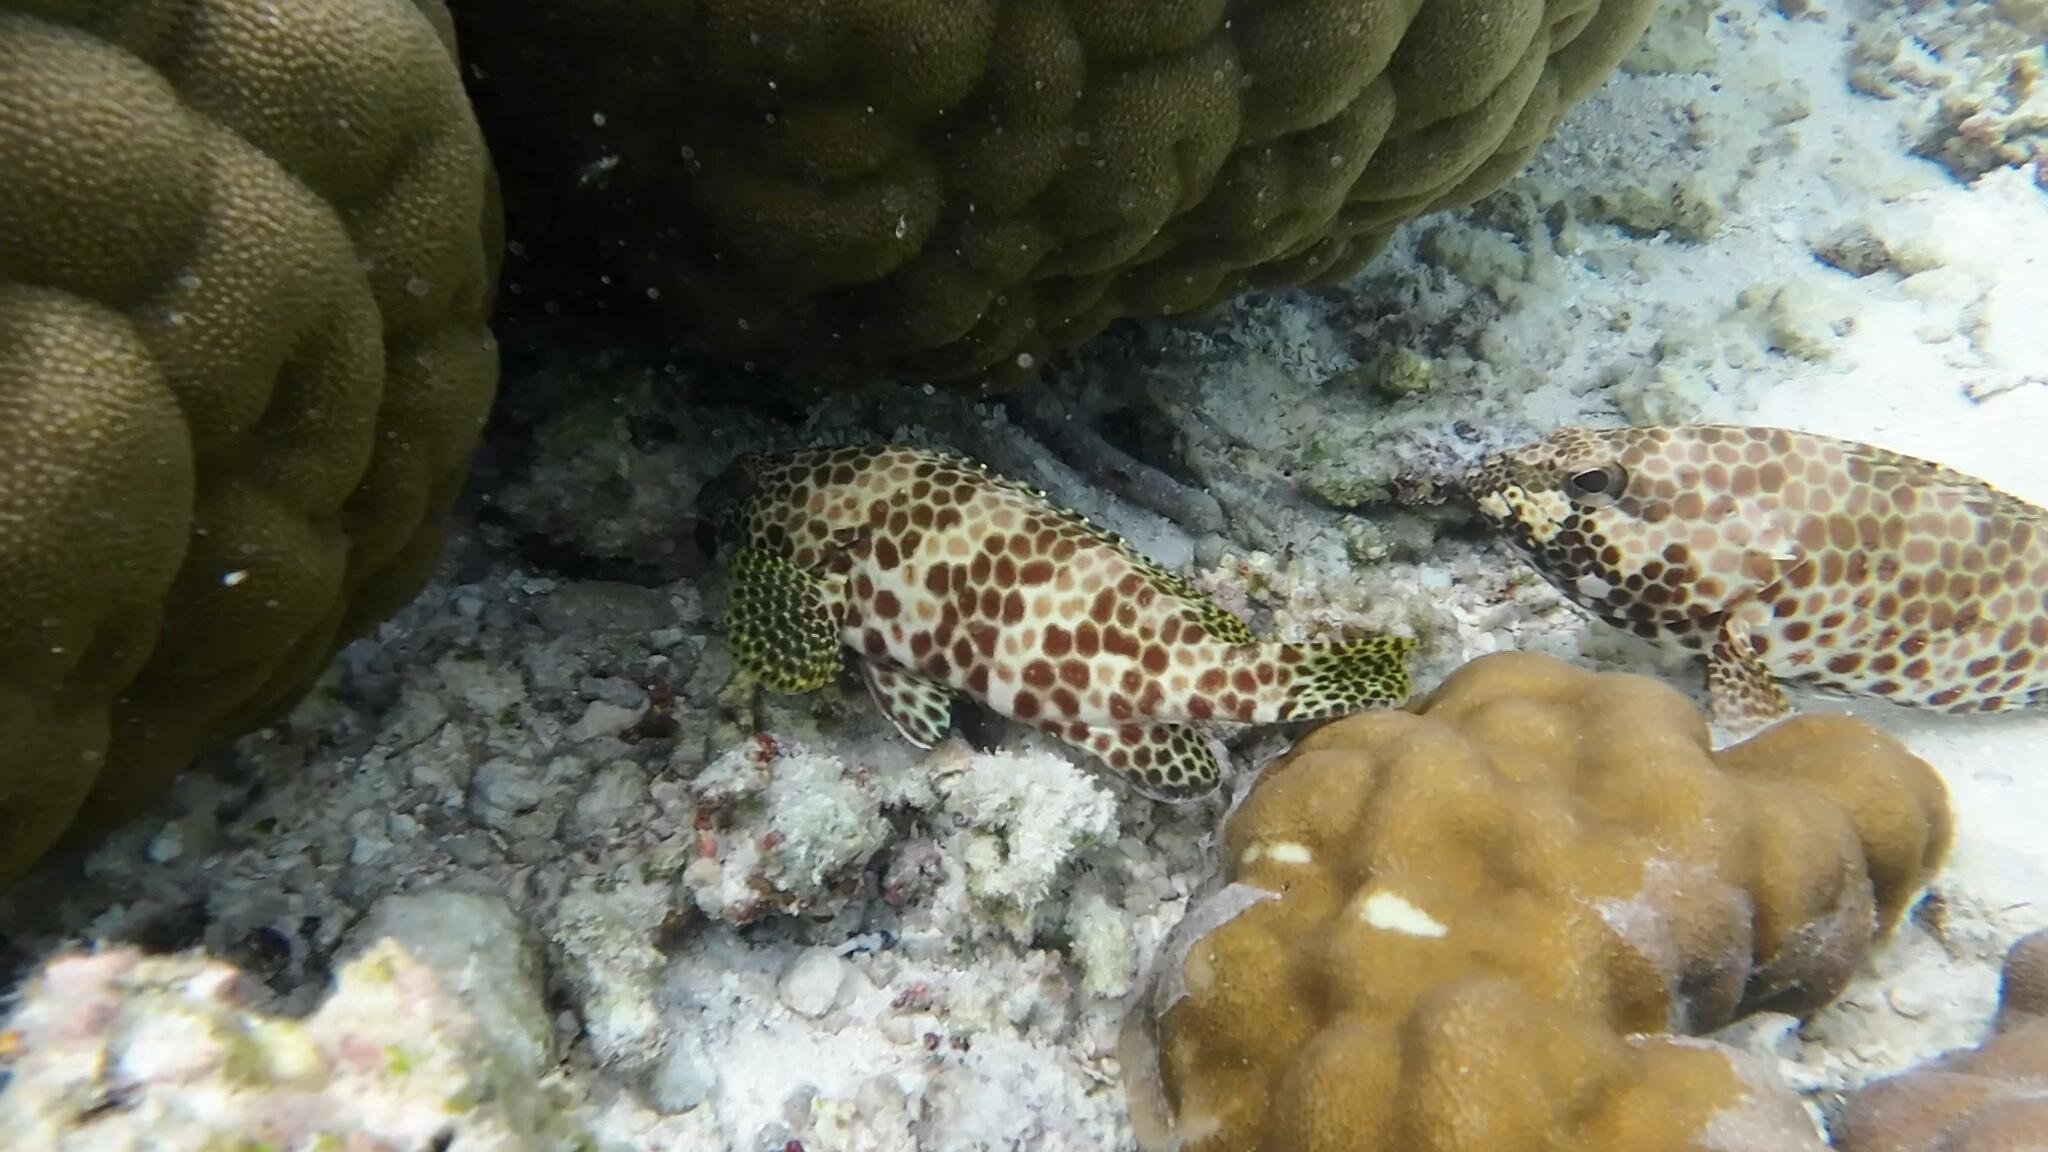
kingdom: Animalia
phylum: Chordata
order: Perciformes
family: Serranidae
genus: Epinephelus
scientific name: Epinephelus merra
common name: Honeycomb grouper
